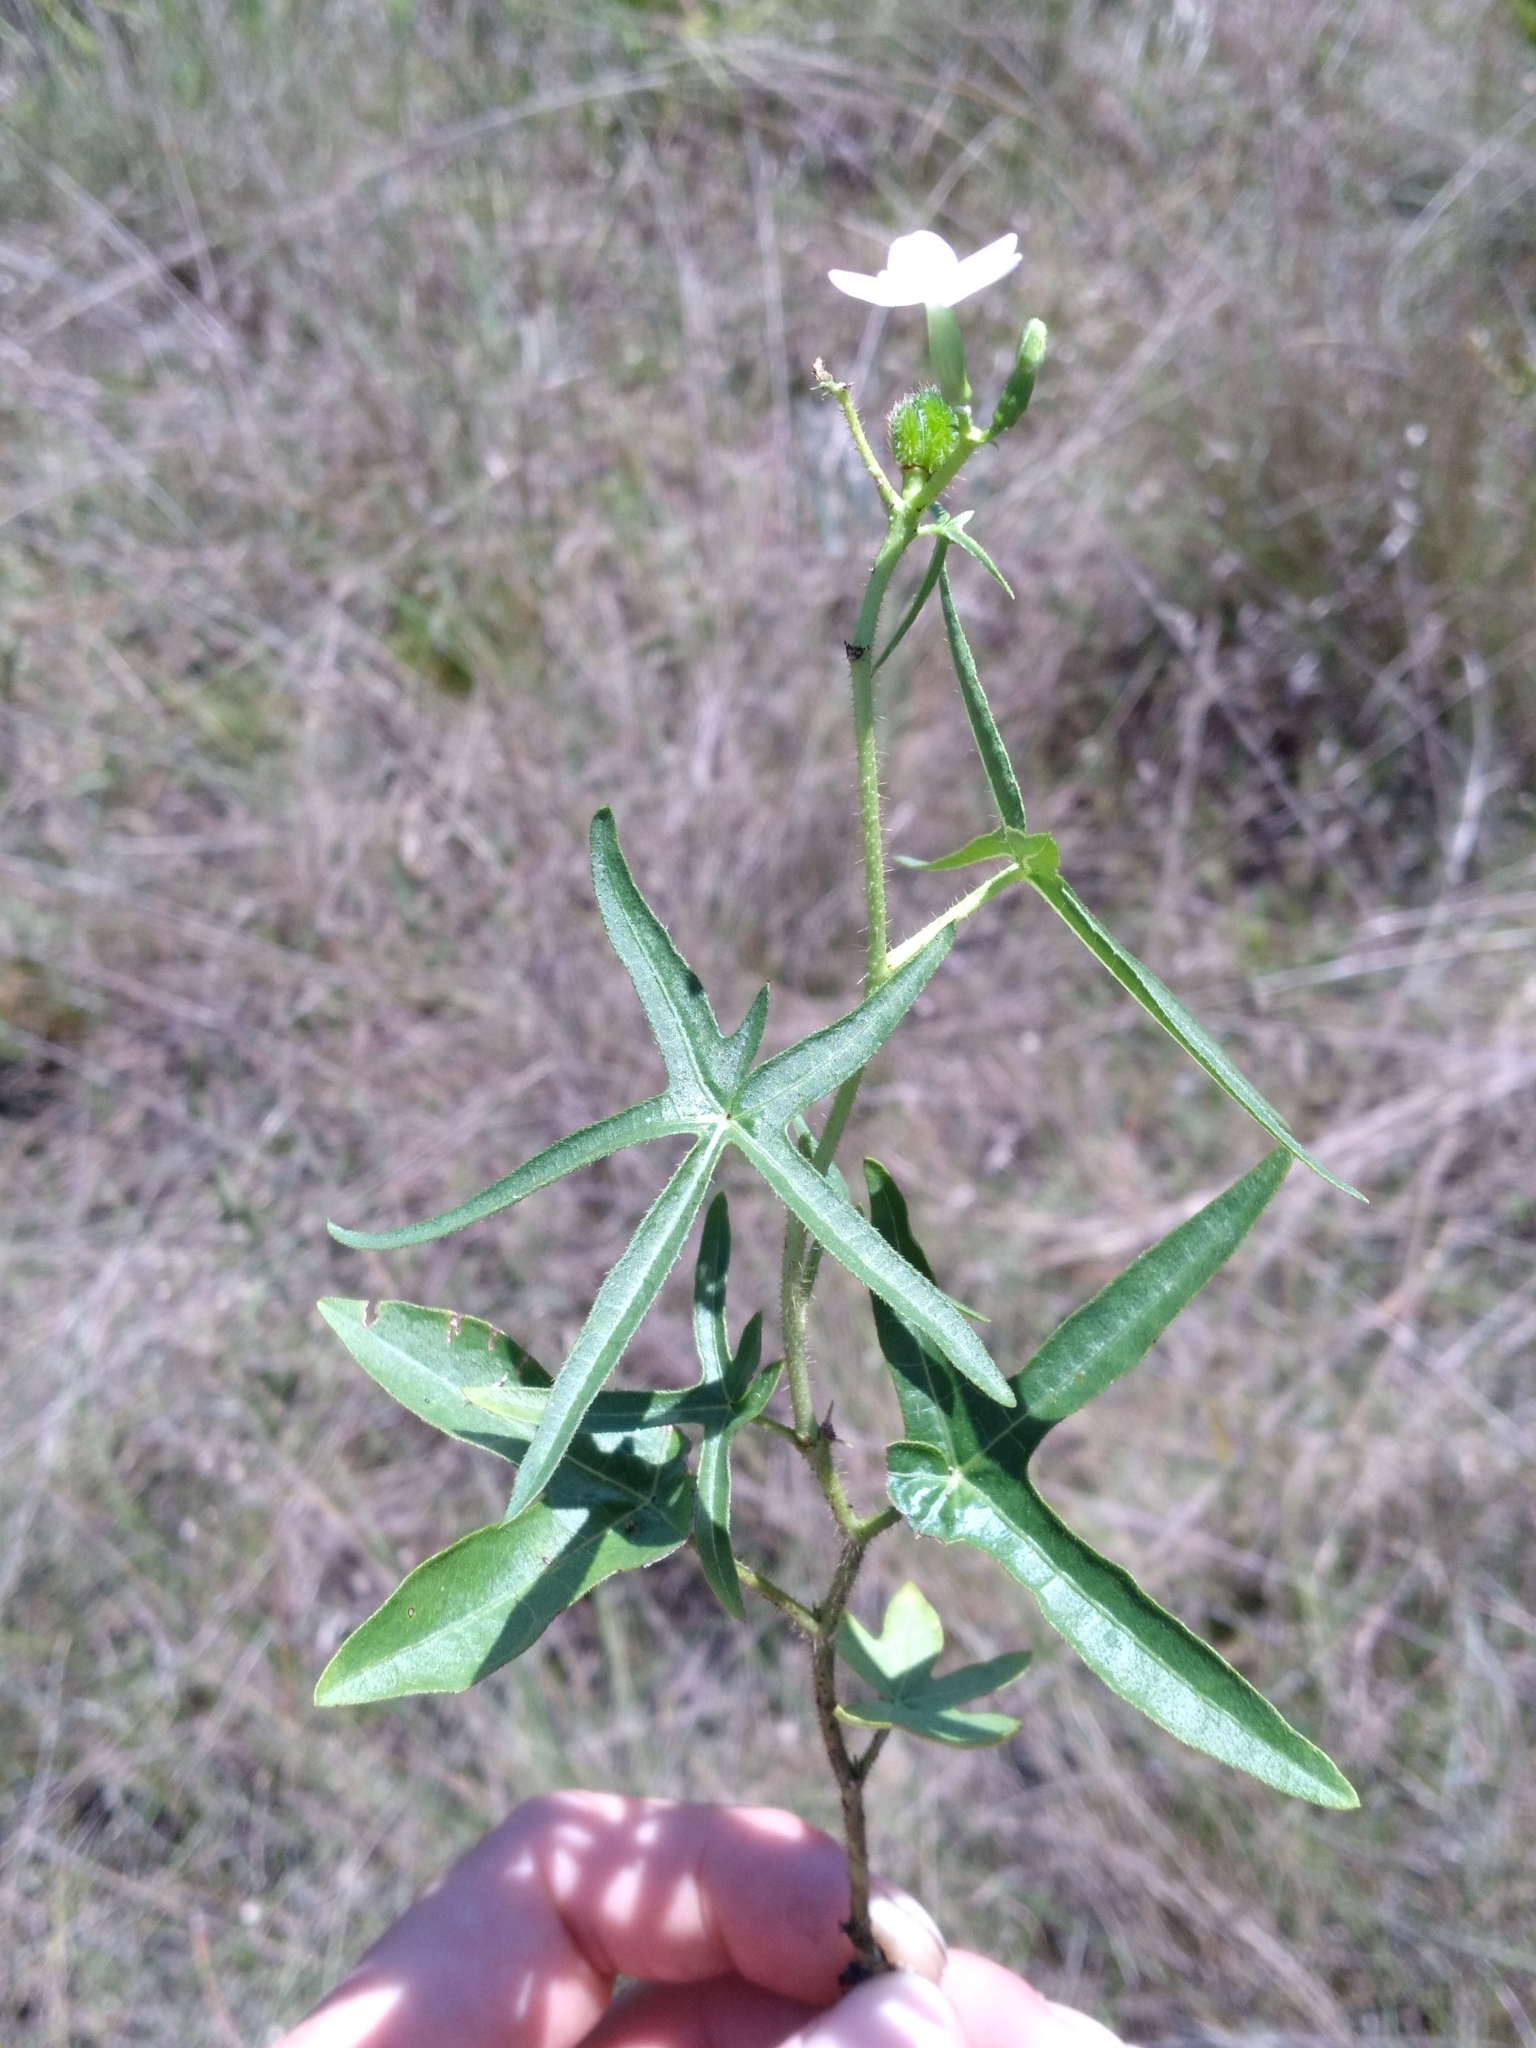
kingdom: Plantae
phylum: Tracheophyta
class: Magnoliopsida
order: Malpighiales
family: Euphorbiaceae
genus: Cnidoscolus
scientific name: Cnidoscolus stimulosus
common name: Bull-nettle
